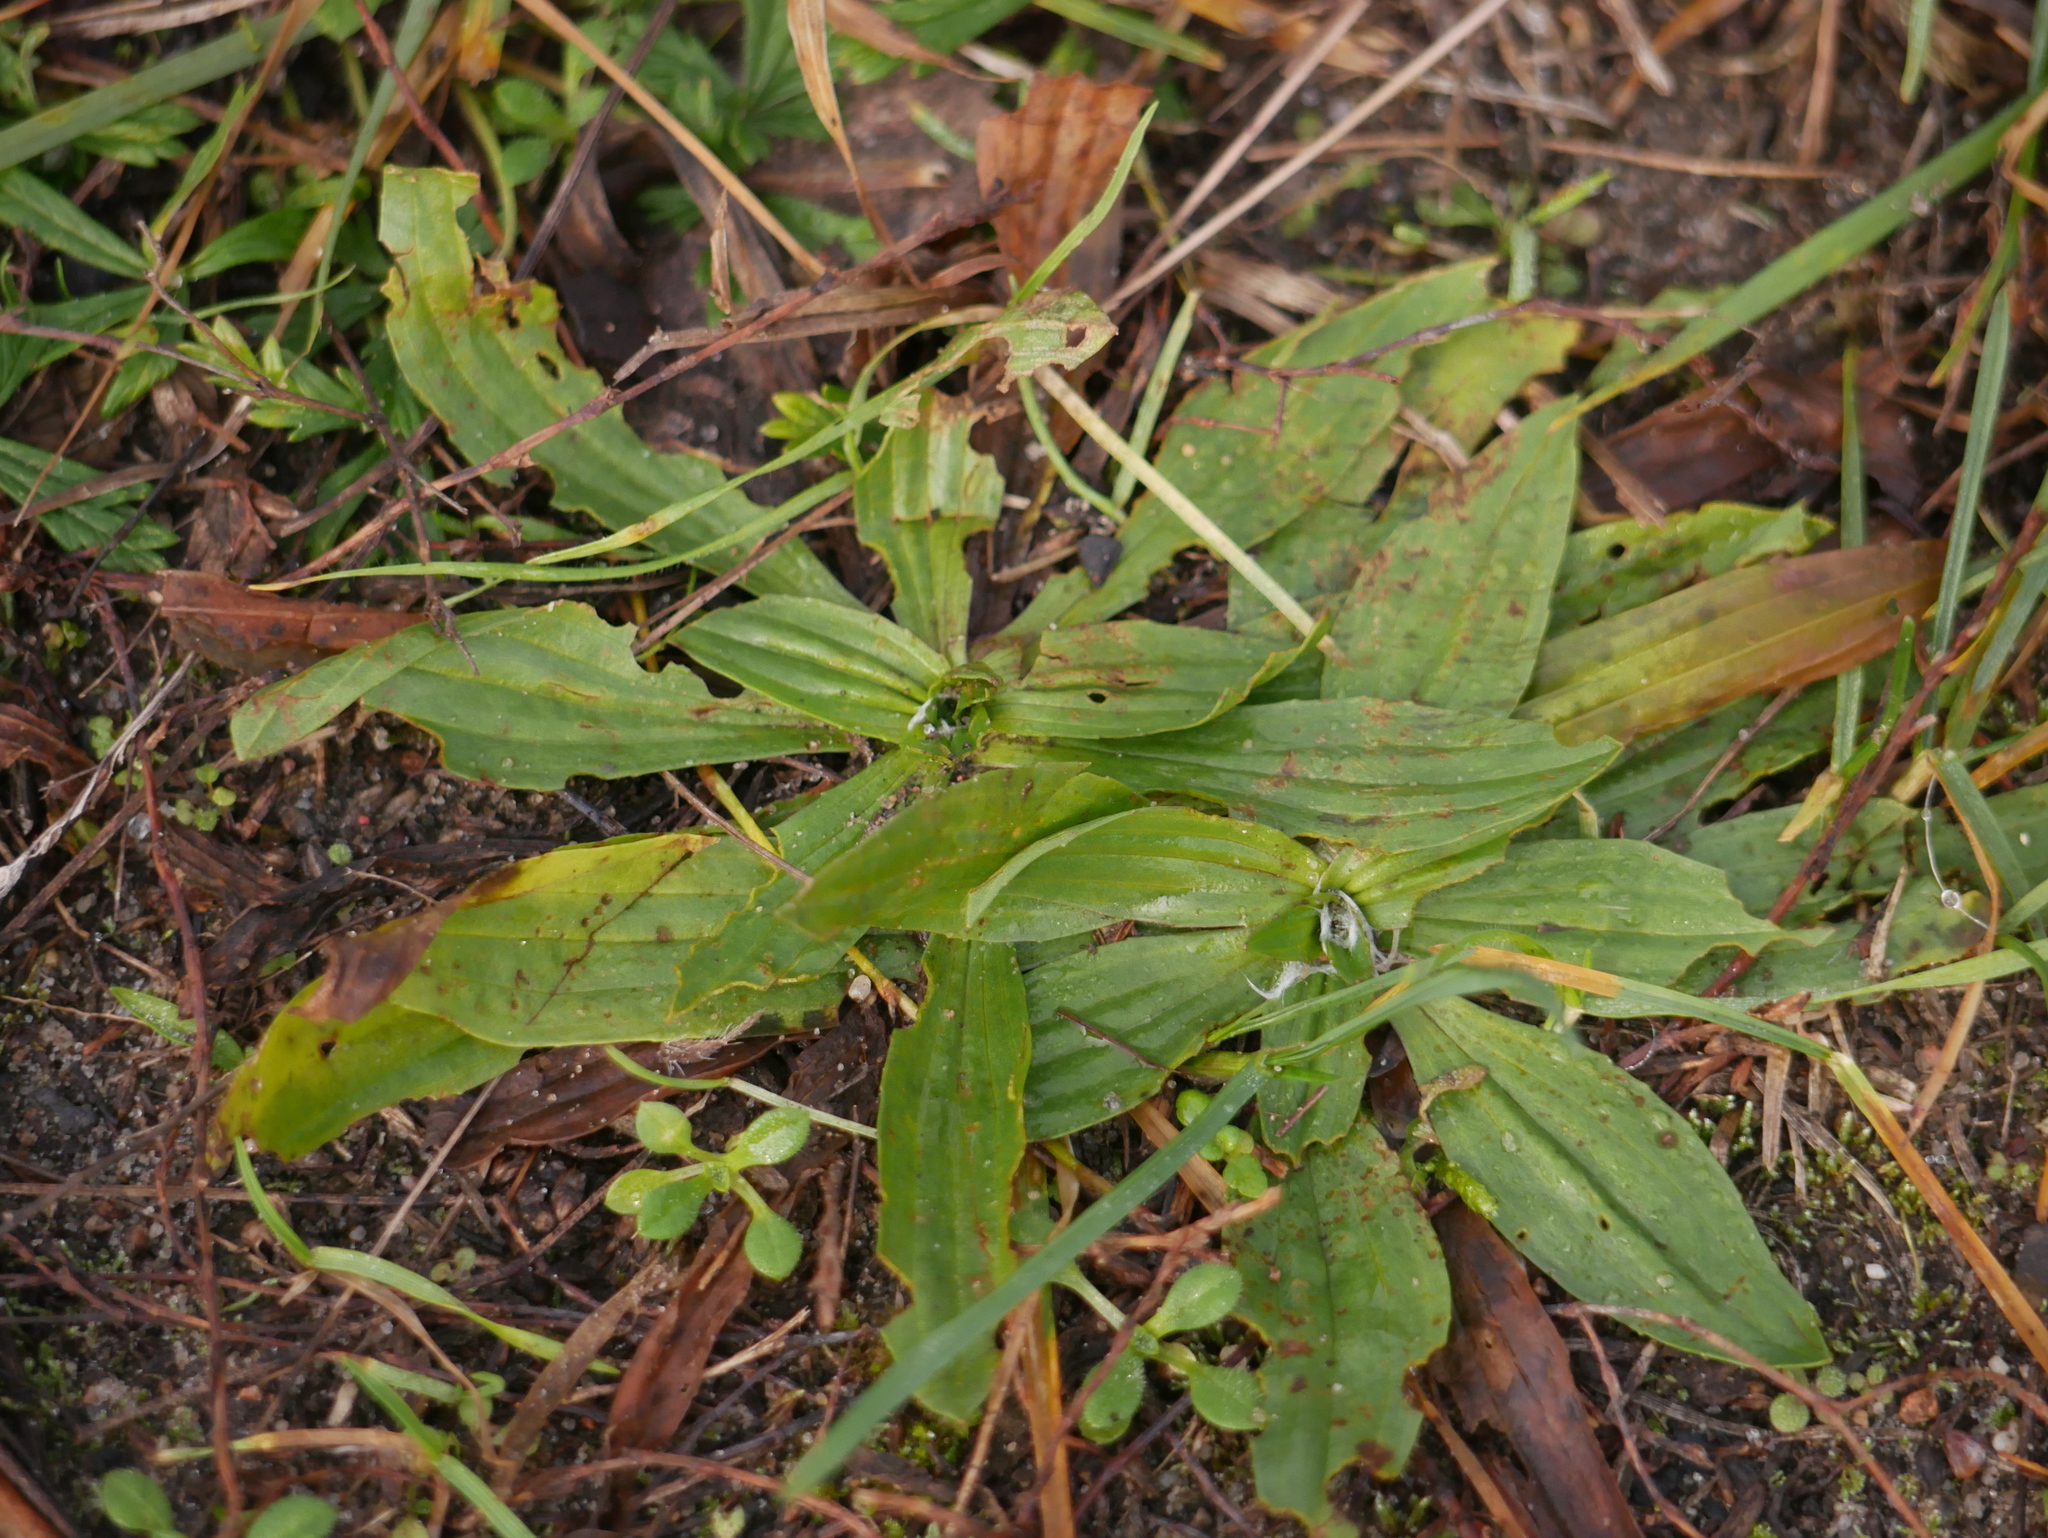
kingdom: Plantae
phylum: Tracheophyta
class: Magnoliopsida
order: Lamiales
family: Plantaginaceae
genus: Plantago
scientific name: Plantago lanceolata
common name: Ribwort plantain
